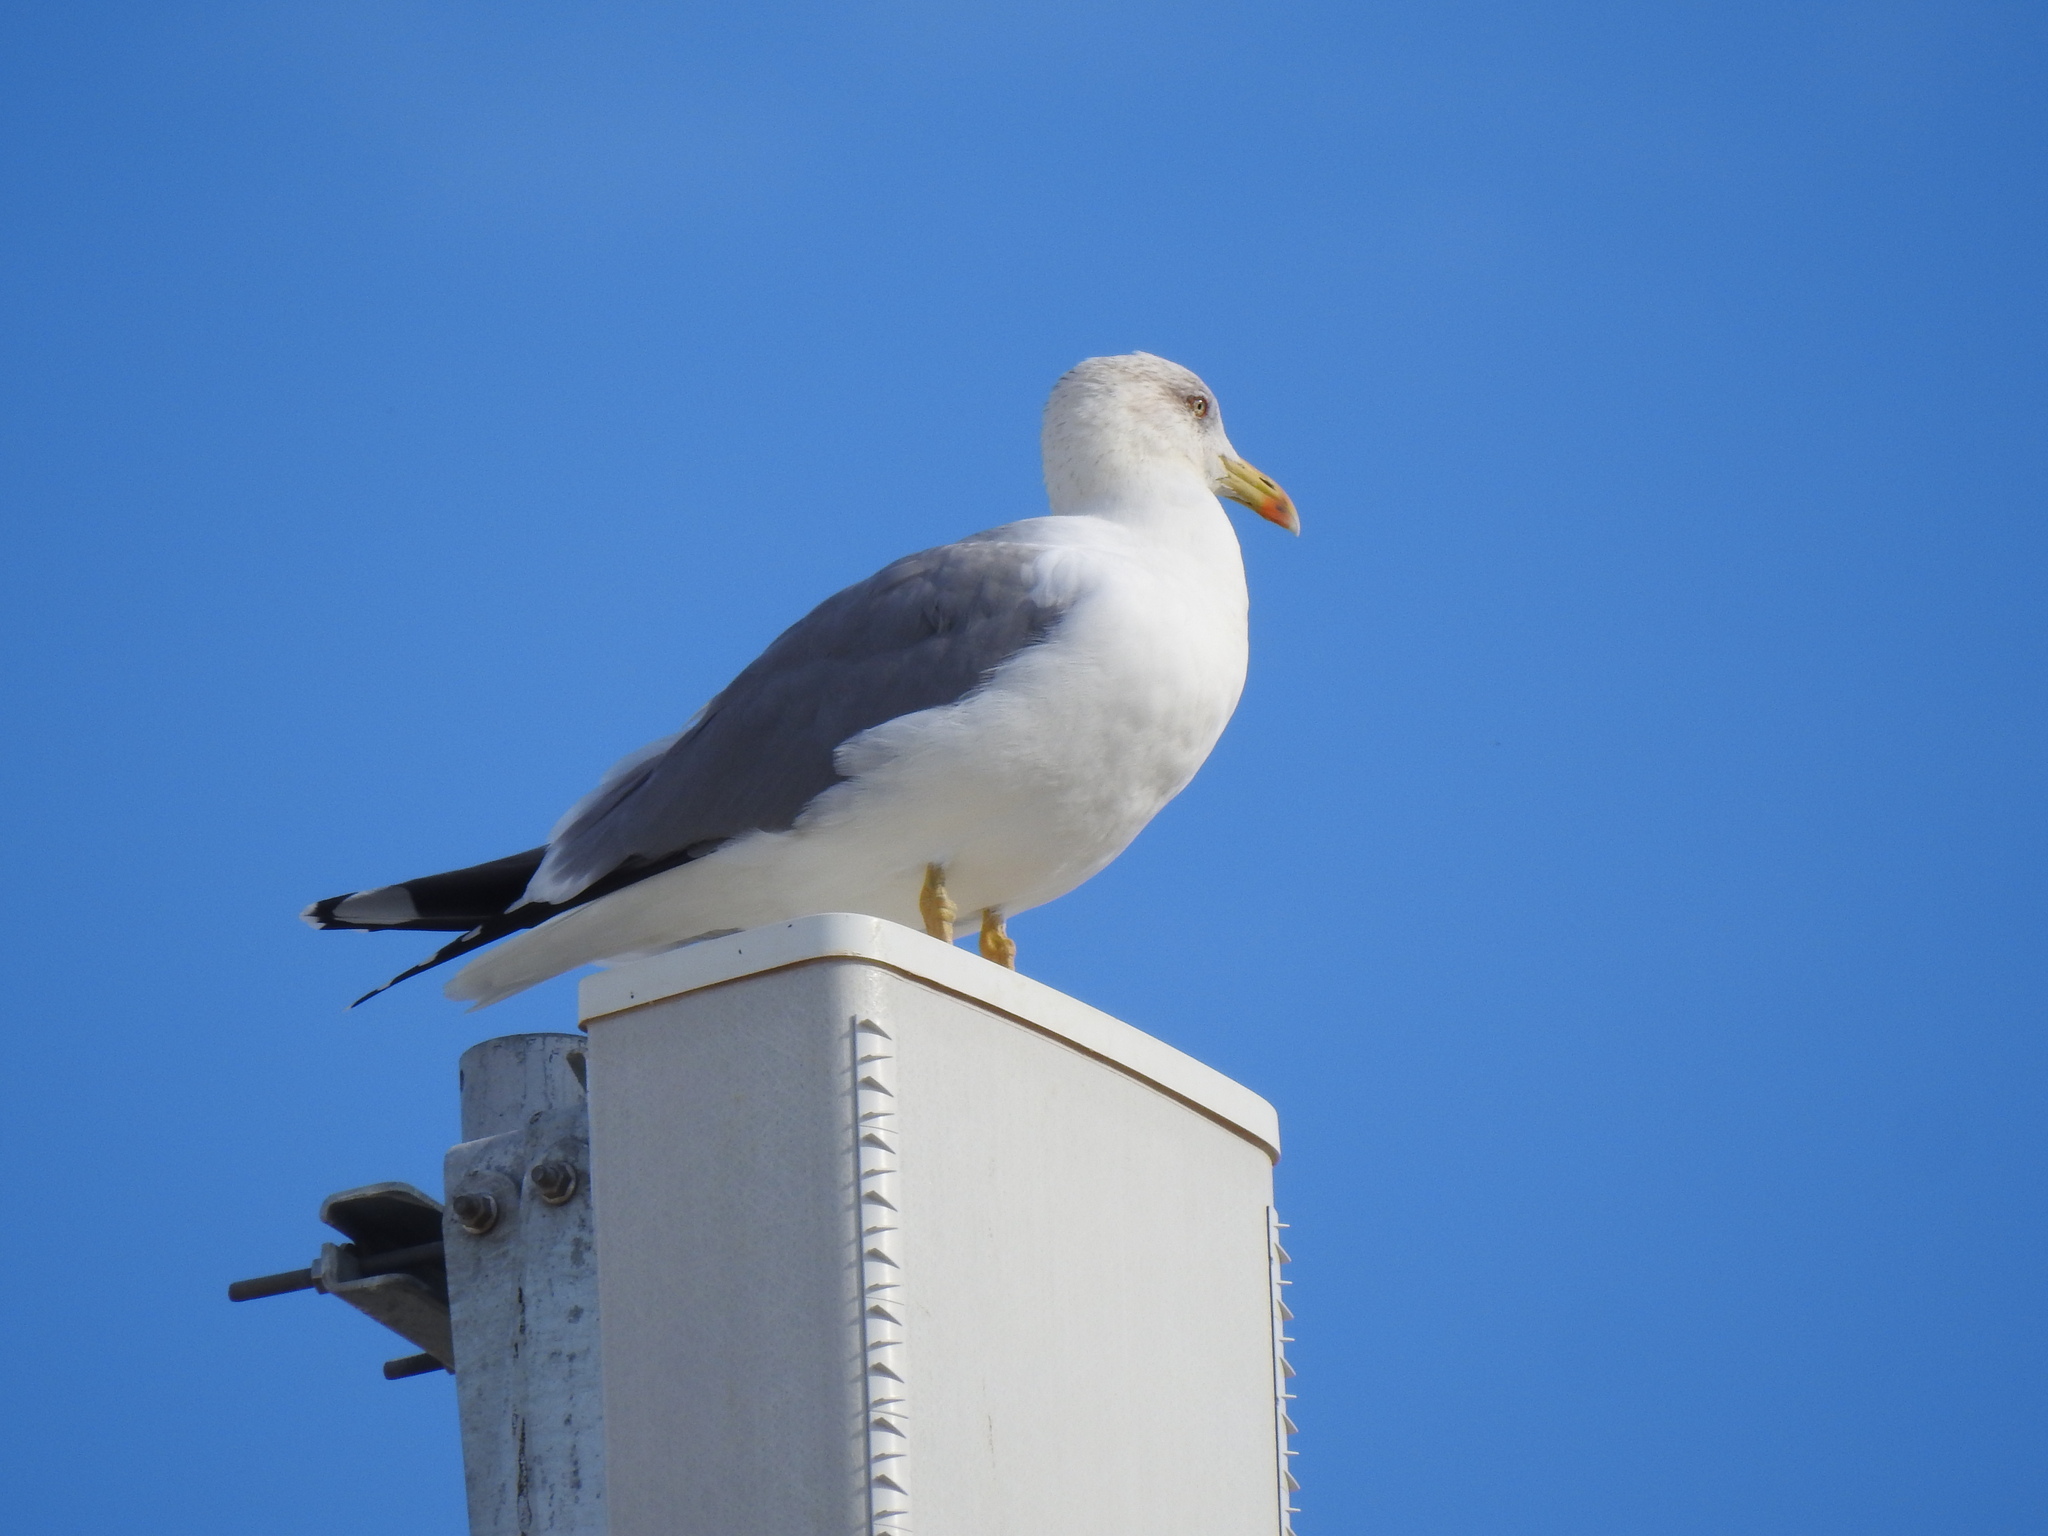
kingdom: Animalia
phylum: Chordata
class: Aves
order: Charadriiformes
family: Laridae
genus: Larus
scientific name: Larus michahellis
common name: Yellow-legged gull
